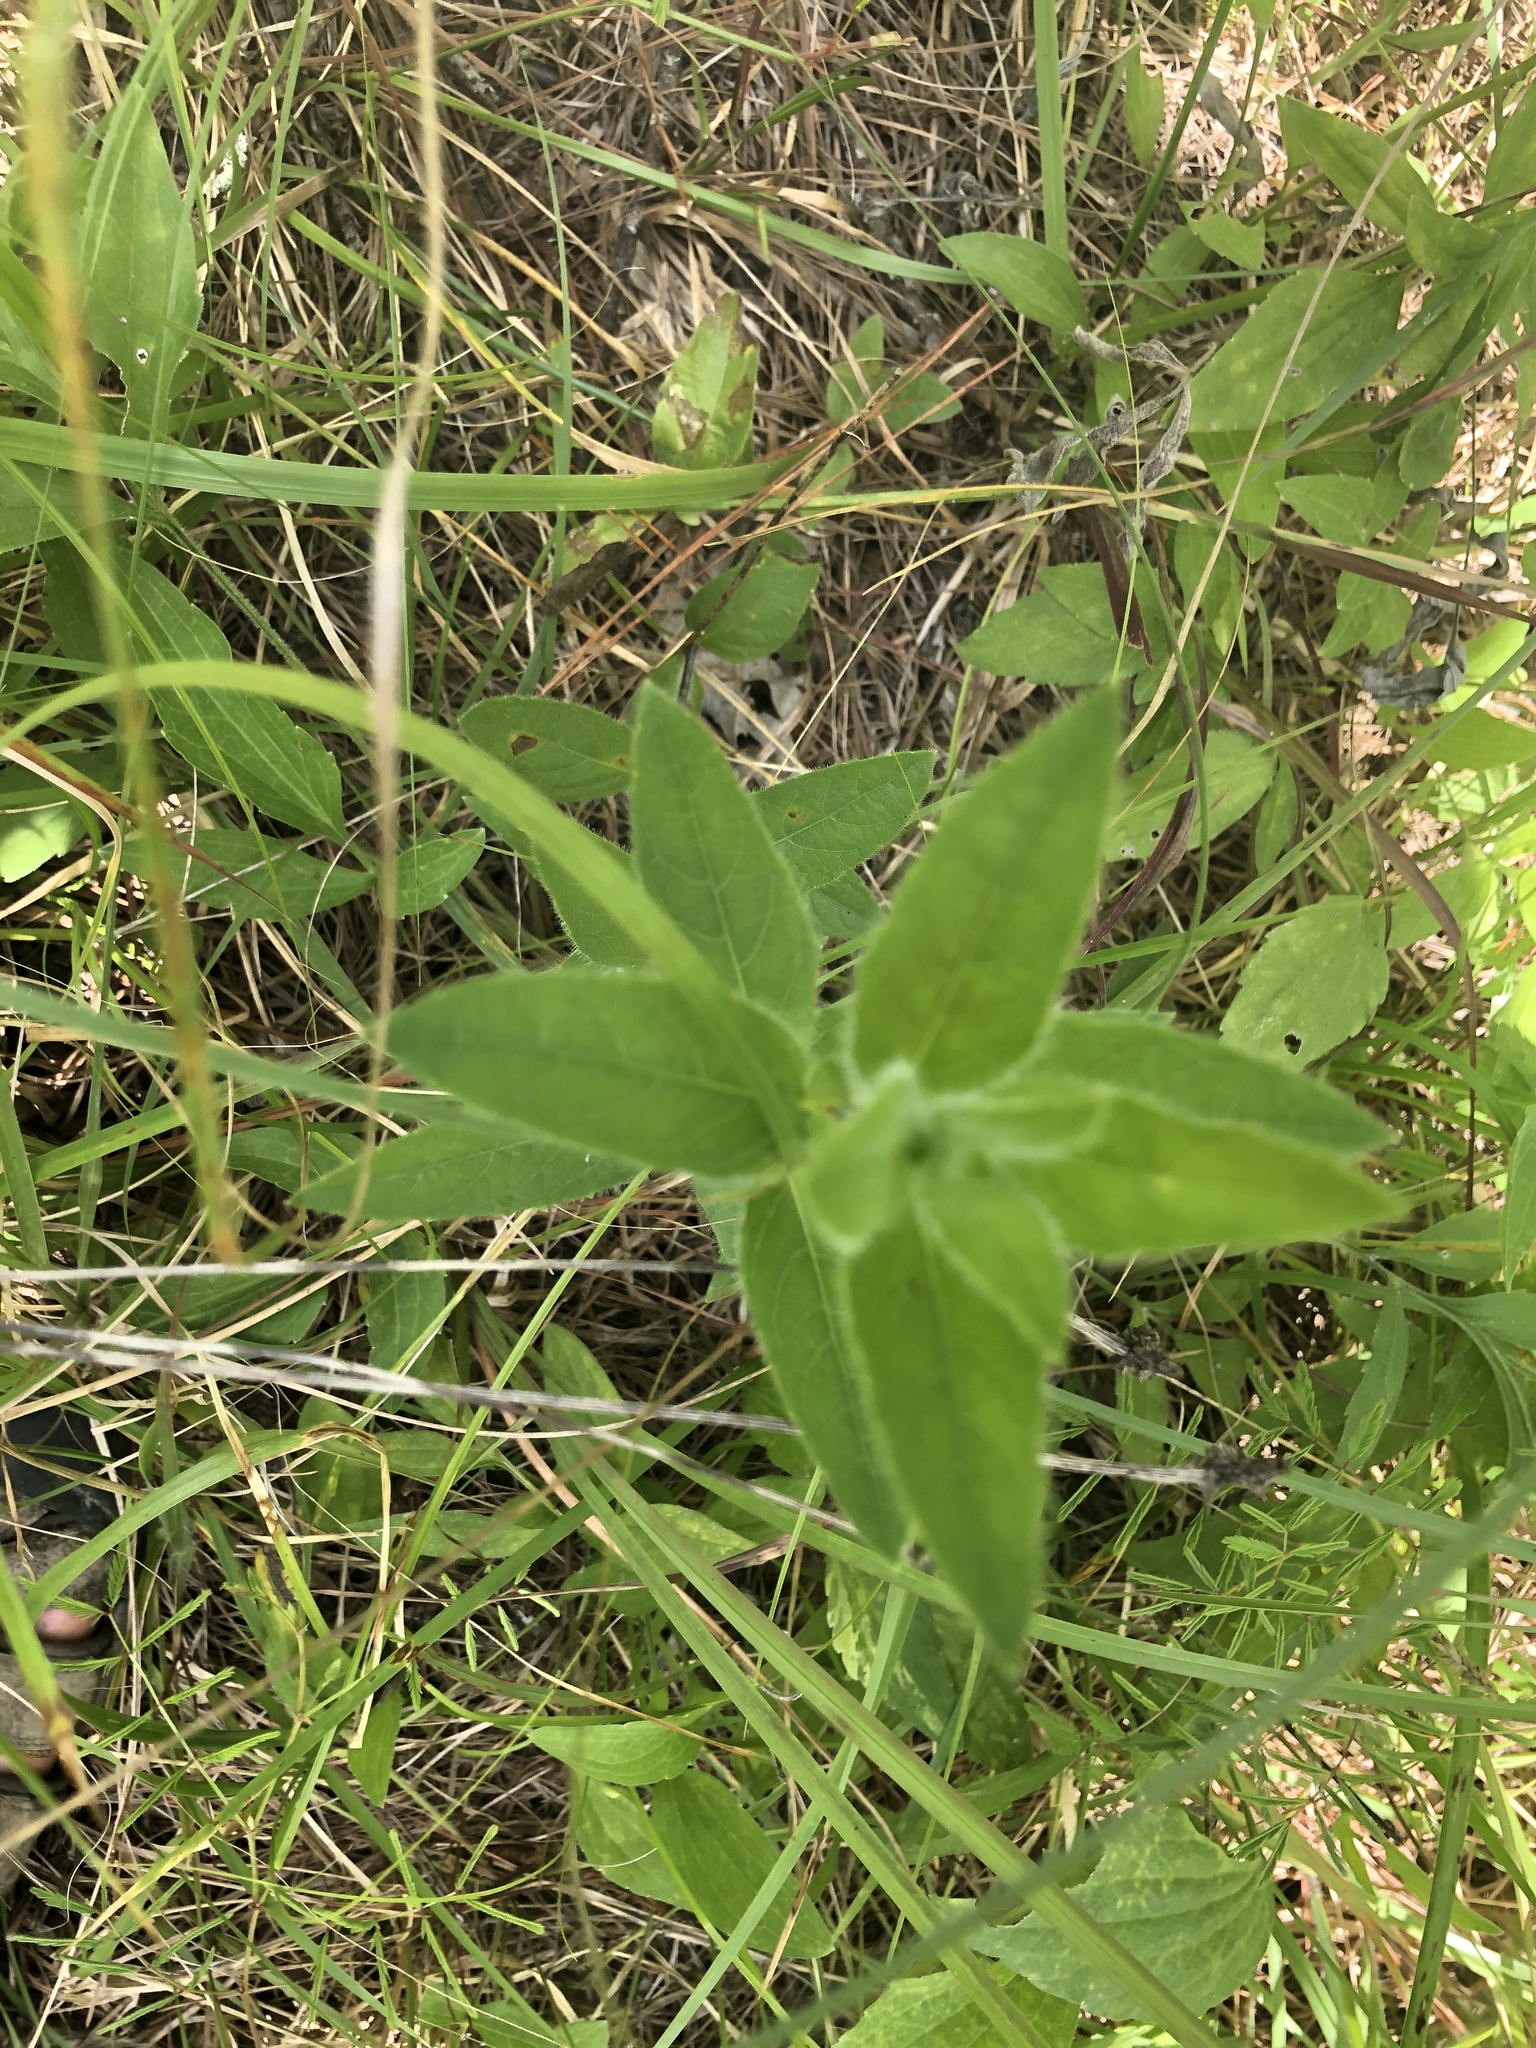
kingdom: Plantae
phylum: Tracheophyta
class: Magnoliopsida
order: Lamiales
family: Acanthaceae
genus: Ruellia
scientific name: Ruellia humilis
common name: Fringe-leaf ruellia
